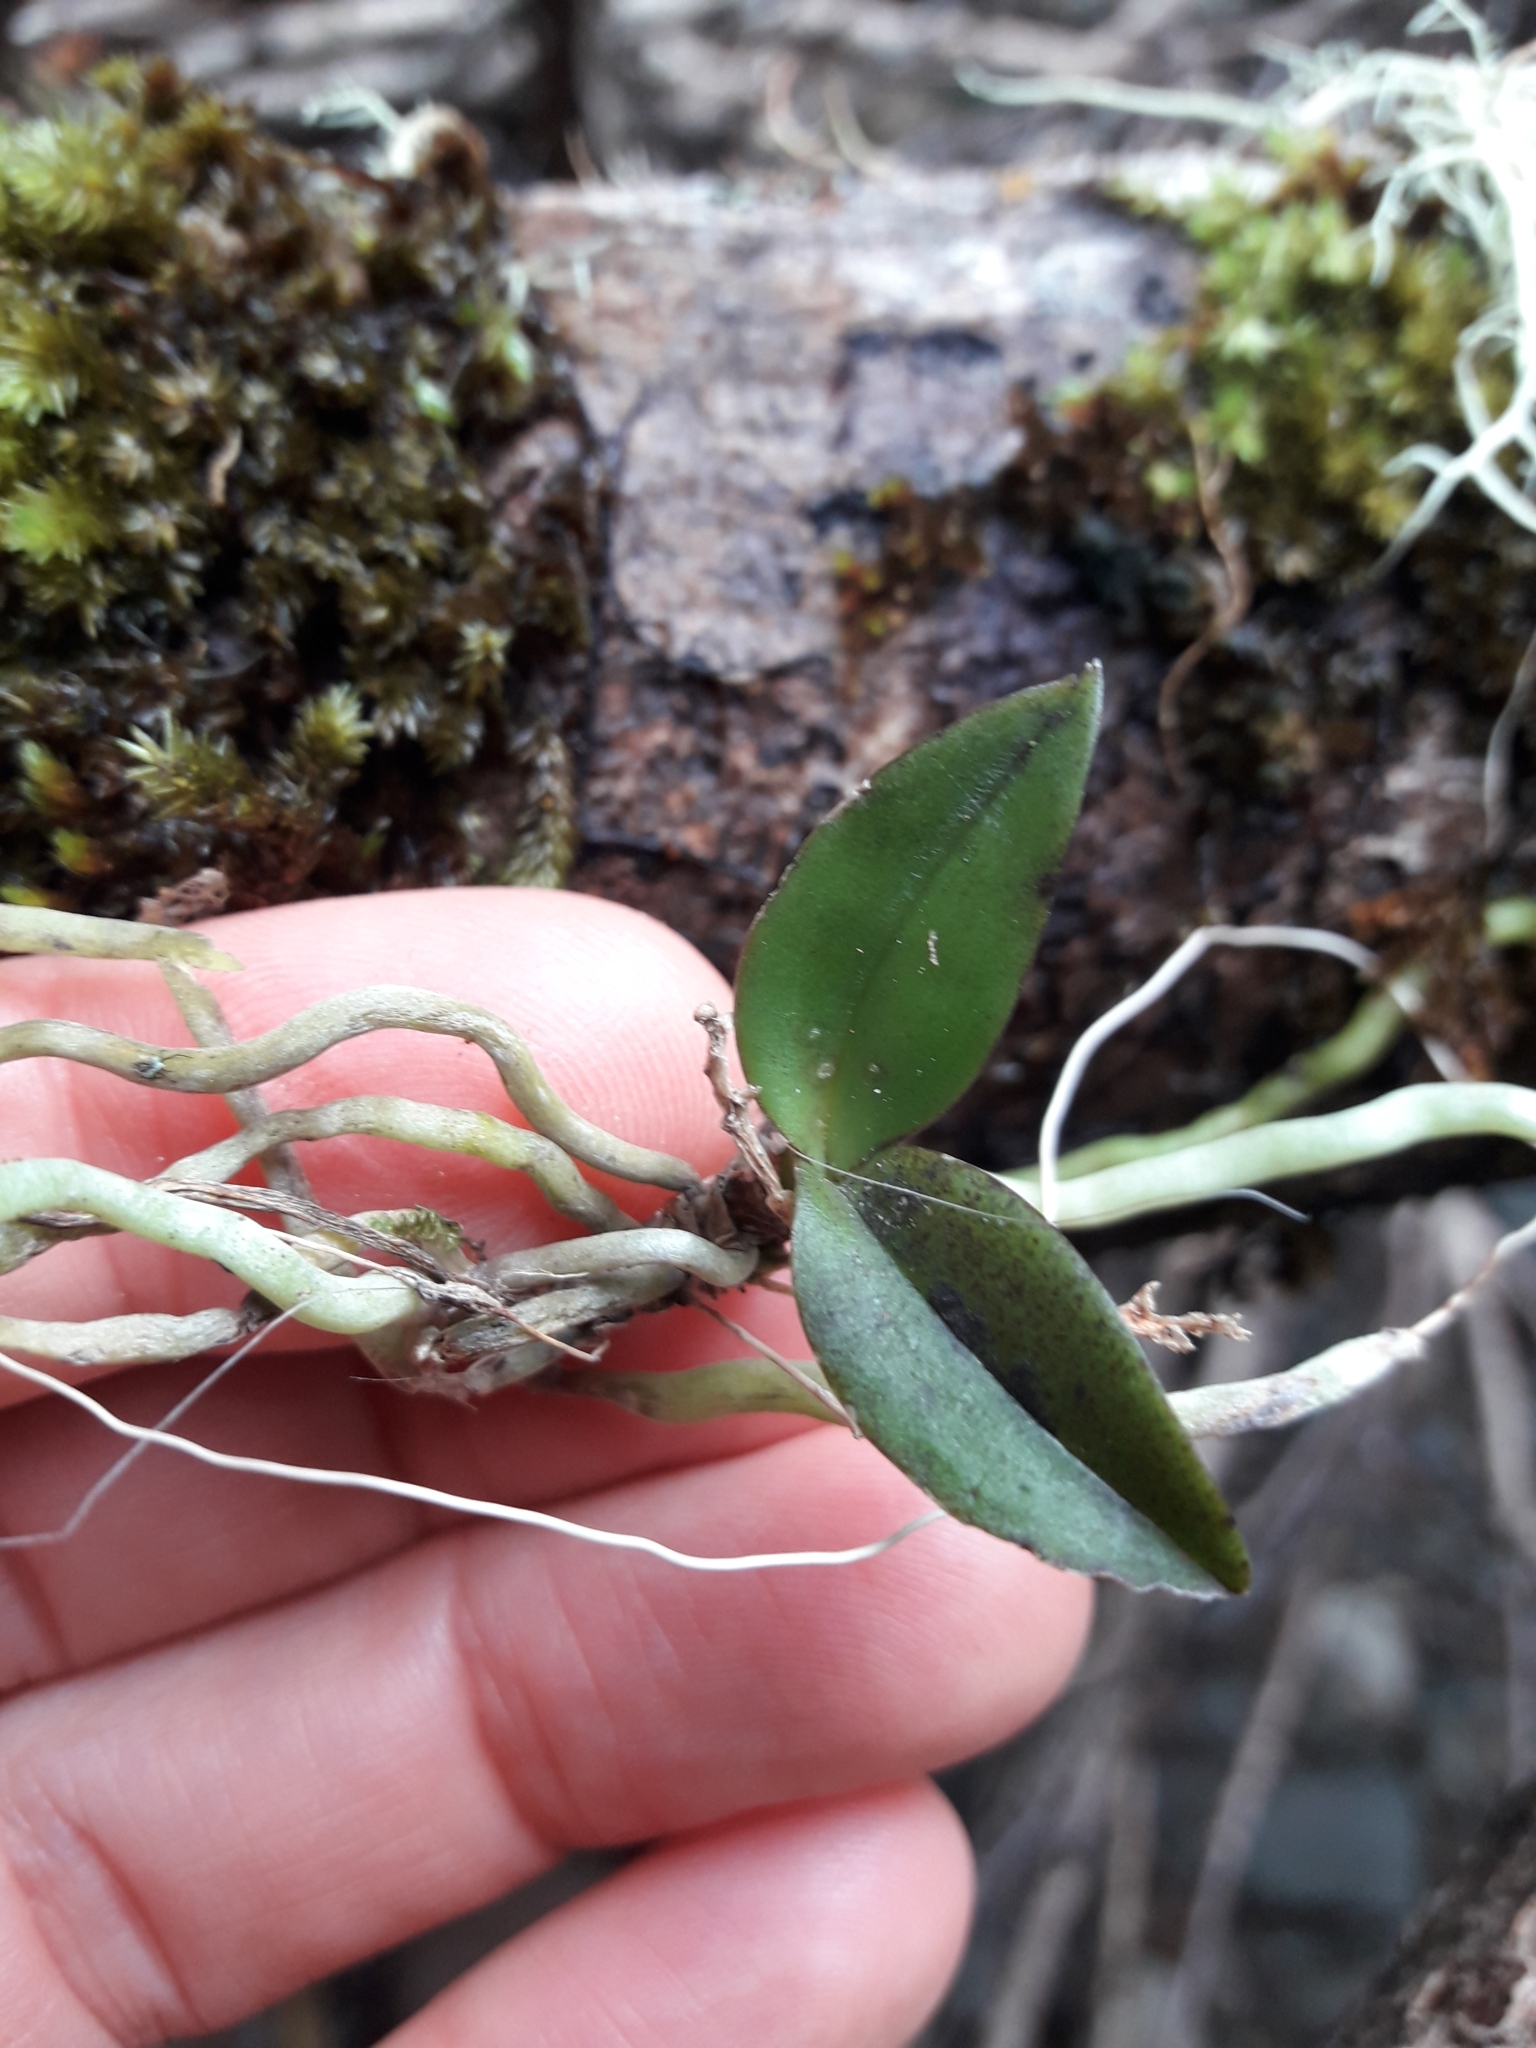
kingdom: Plantae
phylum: Tracheophyta
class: Liliopsida
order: Asparagales
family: Orchidaceae
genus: Drymoanthus
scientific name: Drymoanthus adversus
